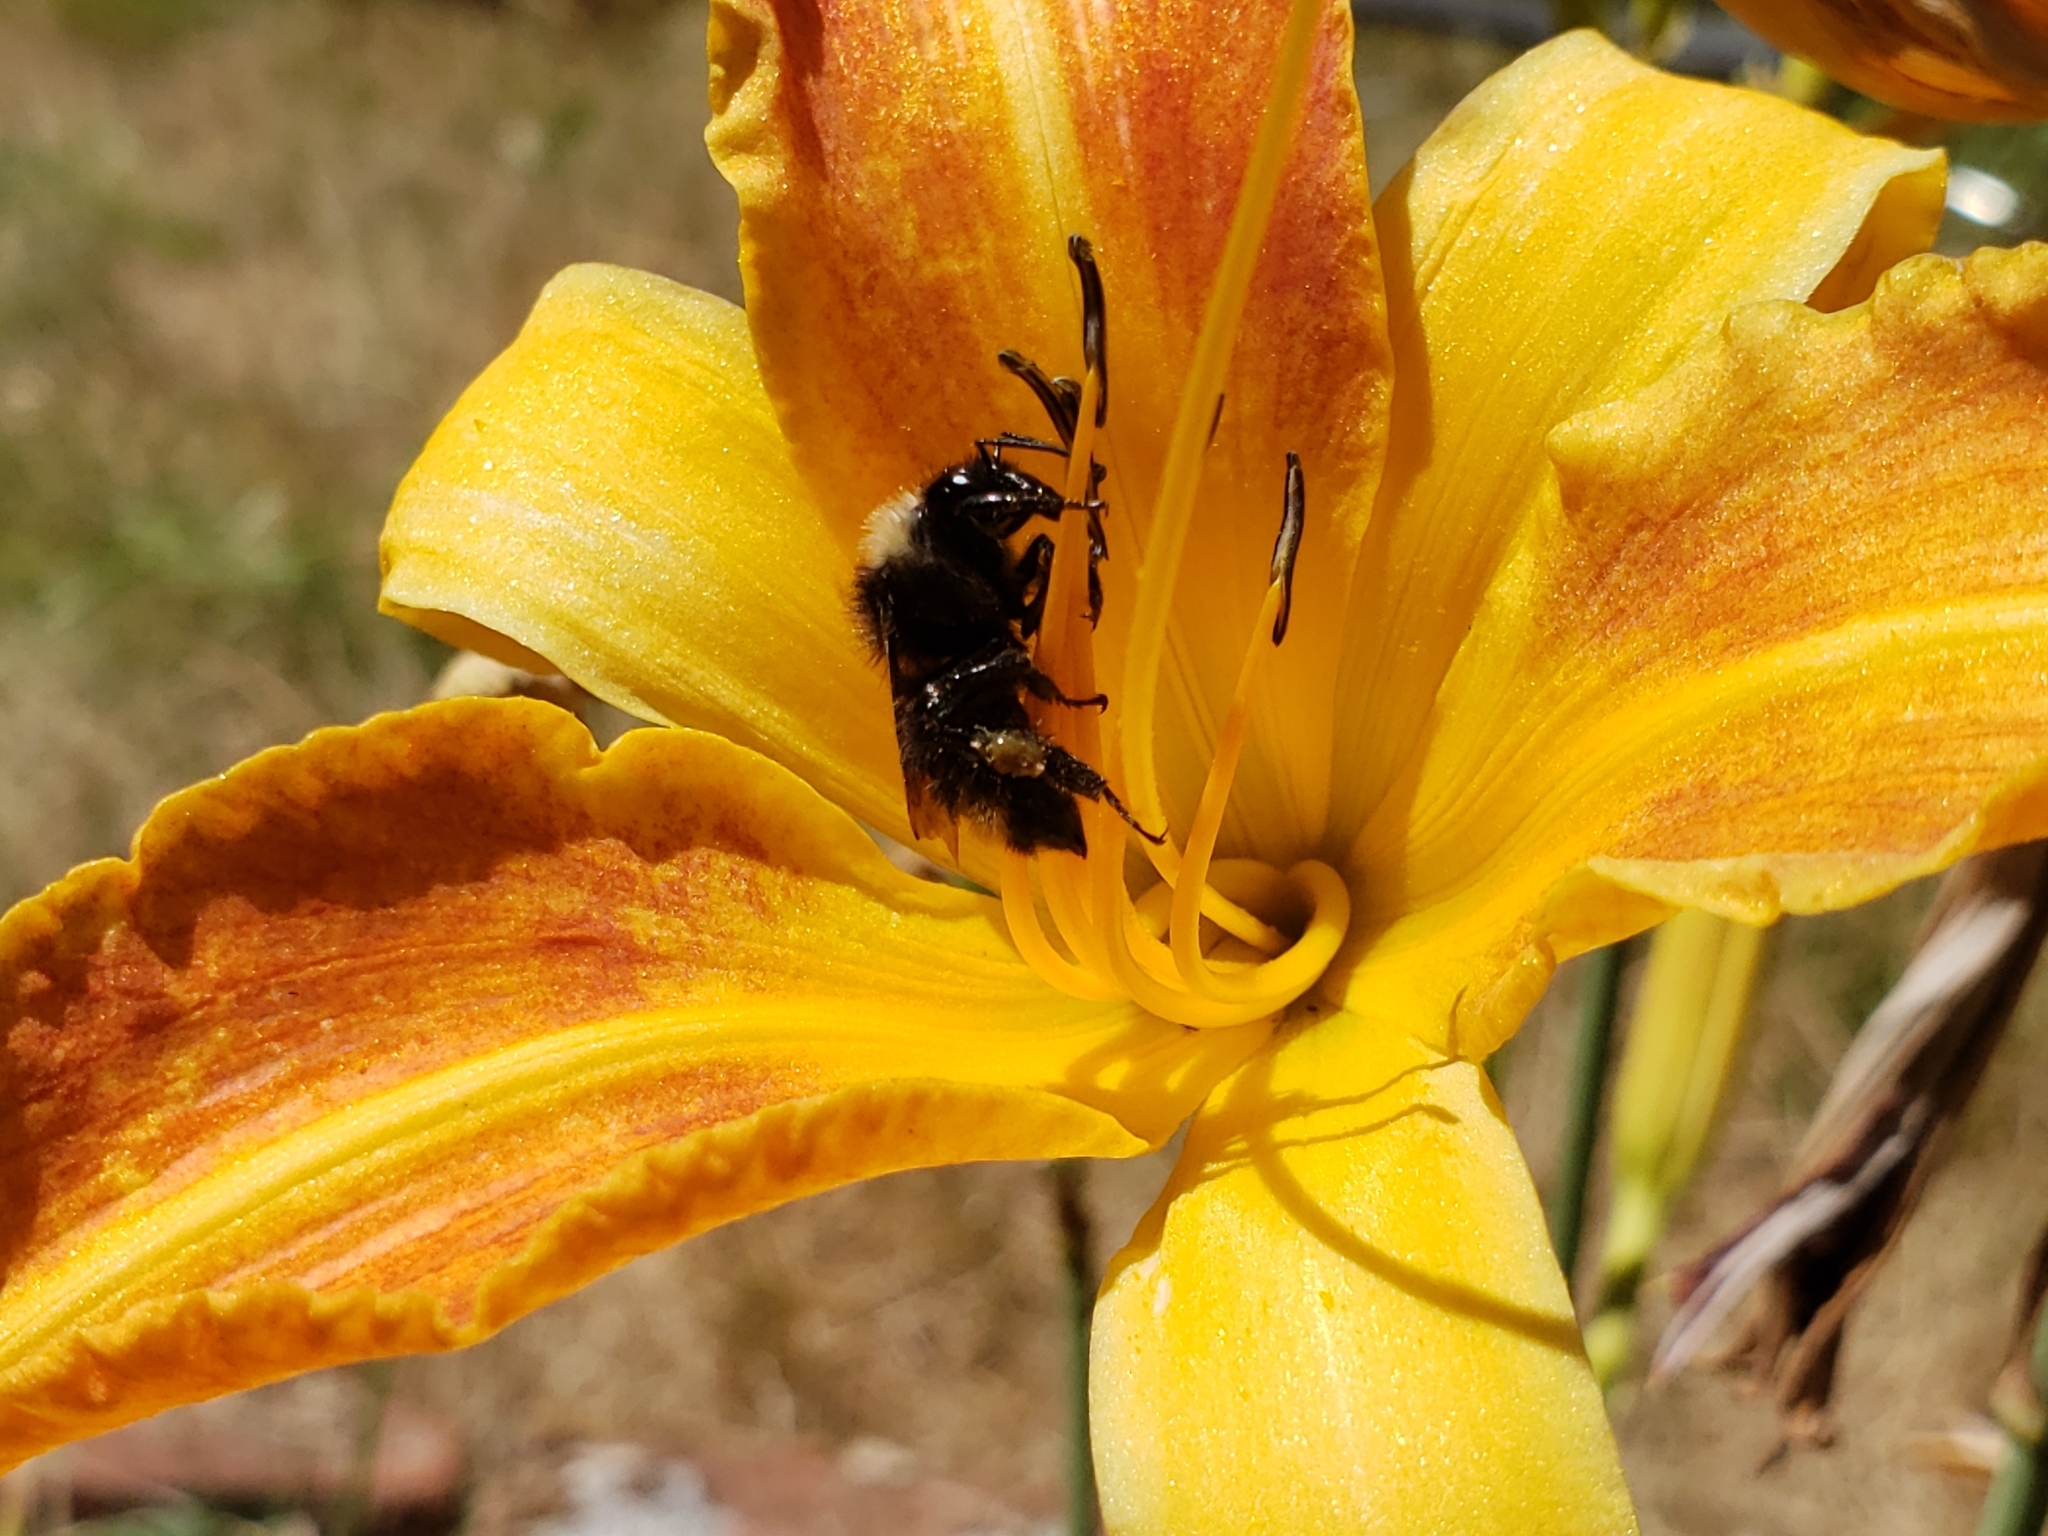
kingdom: Animalia
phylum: Arthropoda
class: Insecta
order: Hymenoptera
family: Apidae
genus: Bombus
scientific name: Bombus californicus
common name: California bumble bee
